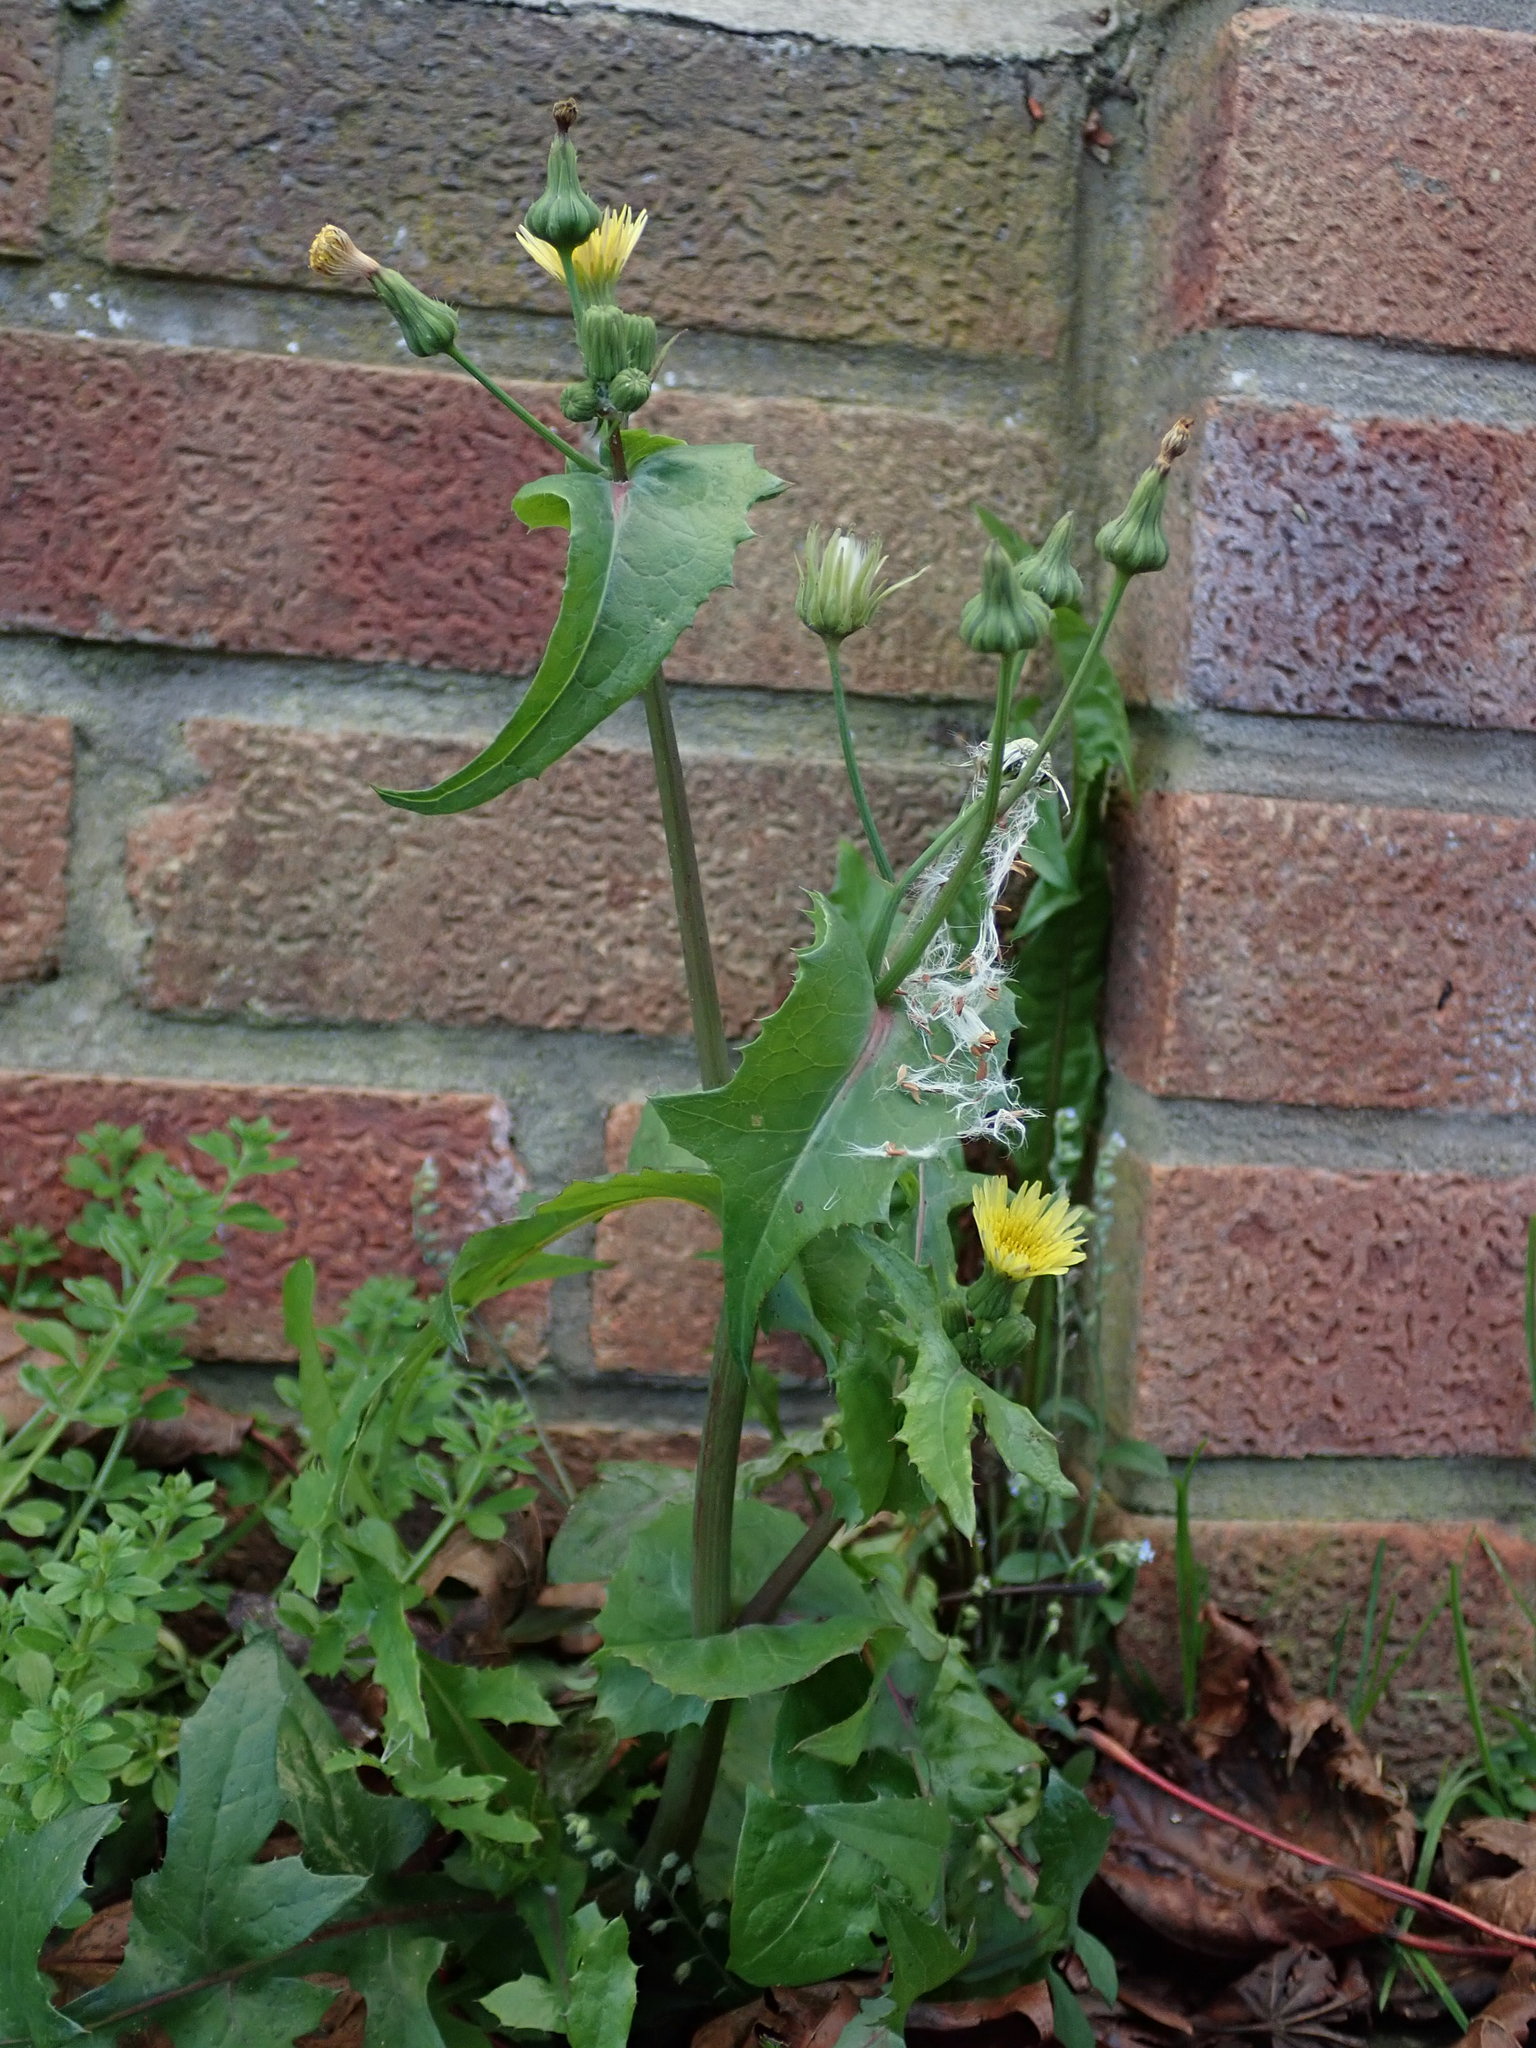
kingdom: Plantae
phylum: Tracheophyta
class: Magnoliopsida
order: Asterales
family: Asteraceae
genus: Sonchus
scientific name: Sonchus oleraceus
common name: Common sowthistle
